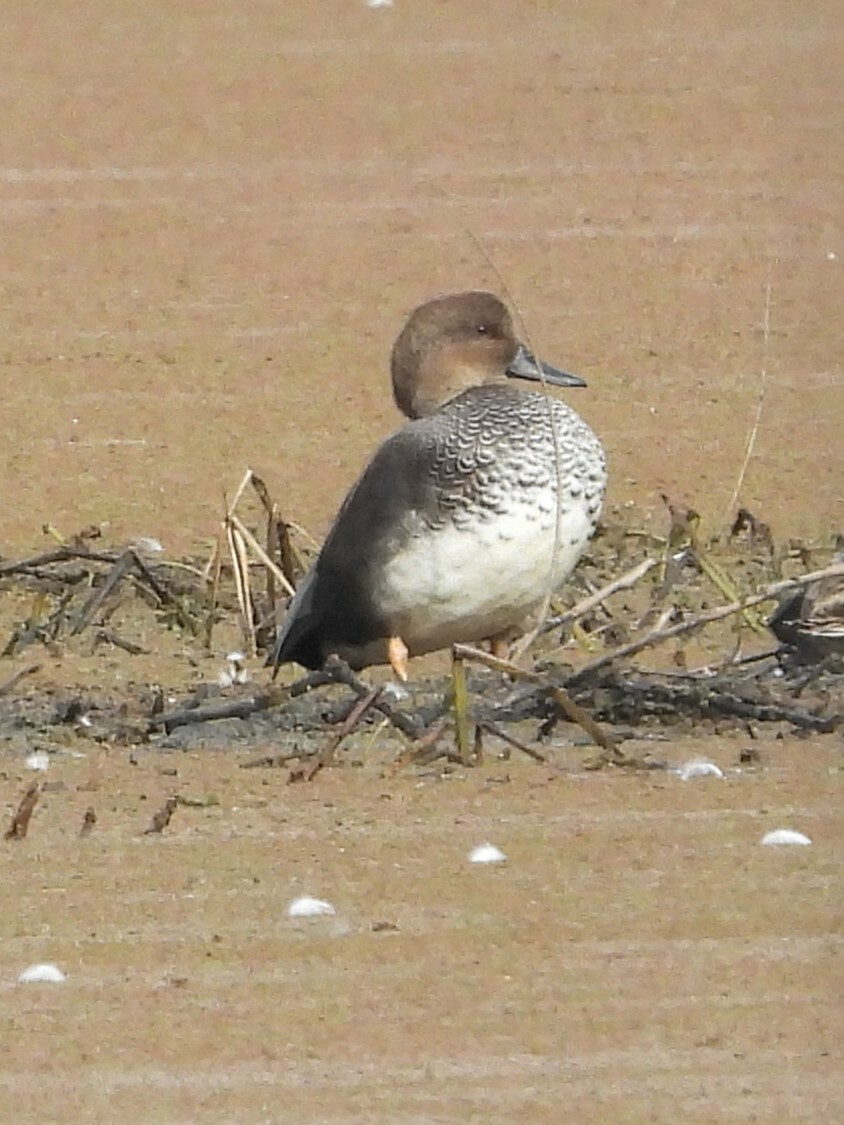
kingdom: Animalia
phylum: Chordata
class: Aves
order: Anseriformes
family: Anatidae
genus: Mareca
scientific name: Mareca strepera
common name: Gadwall
